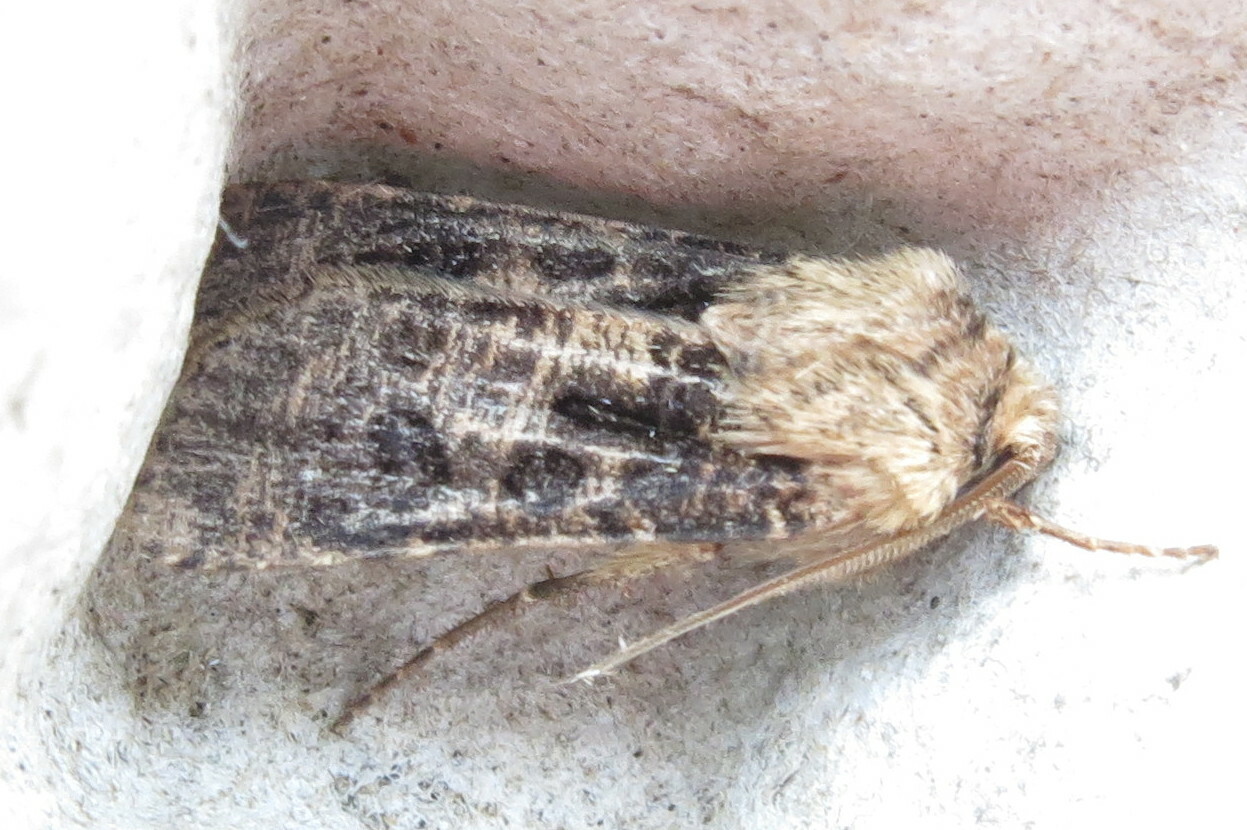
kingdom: Animalia
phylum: Arthropoda
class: Insecta
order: Lepidoptera
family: Noctuidae
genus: Agrotis
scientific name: Agrotis clavis
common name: Heart and club
